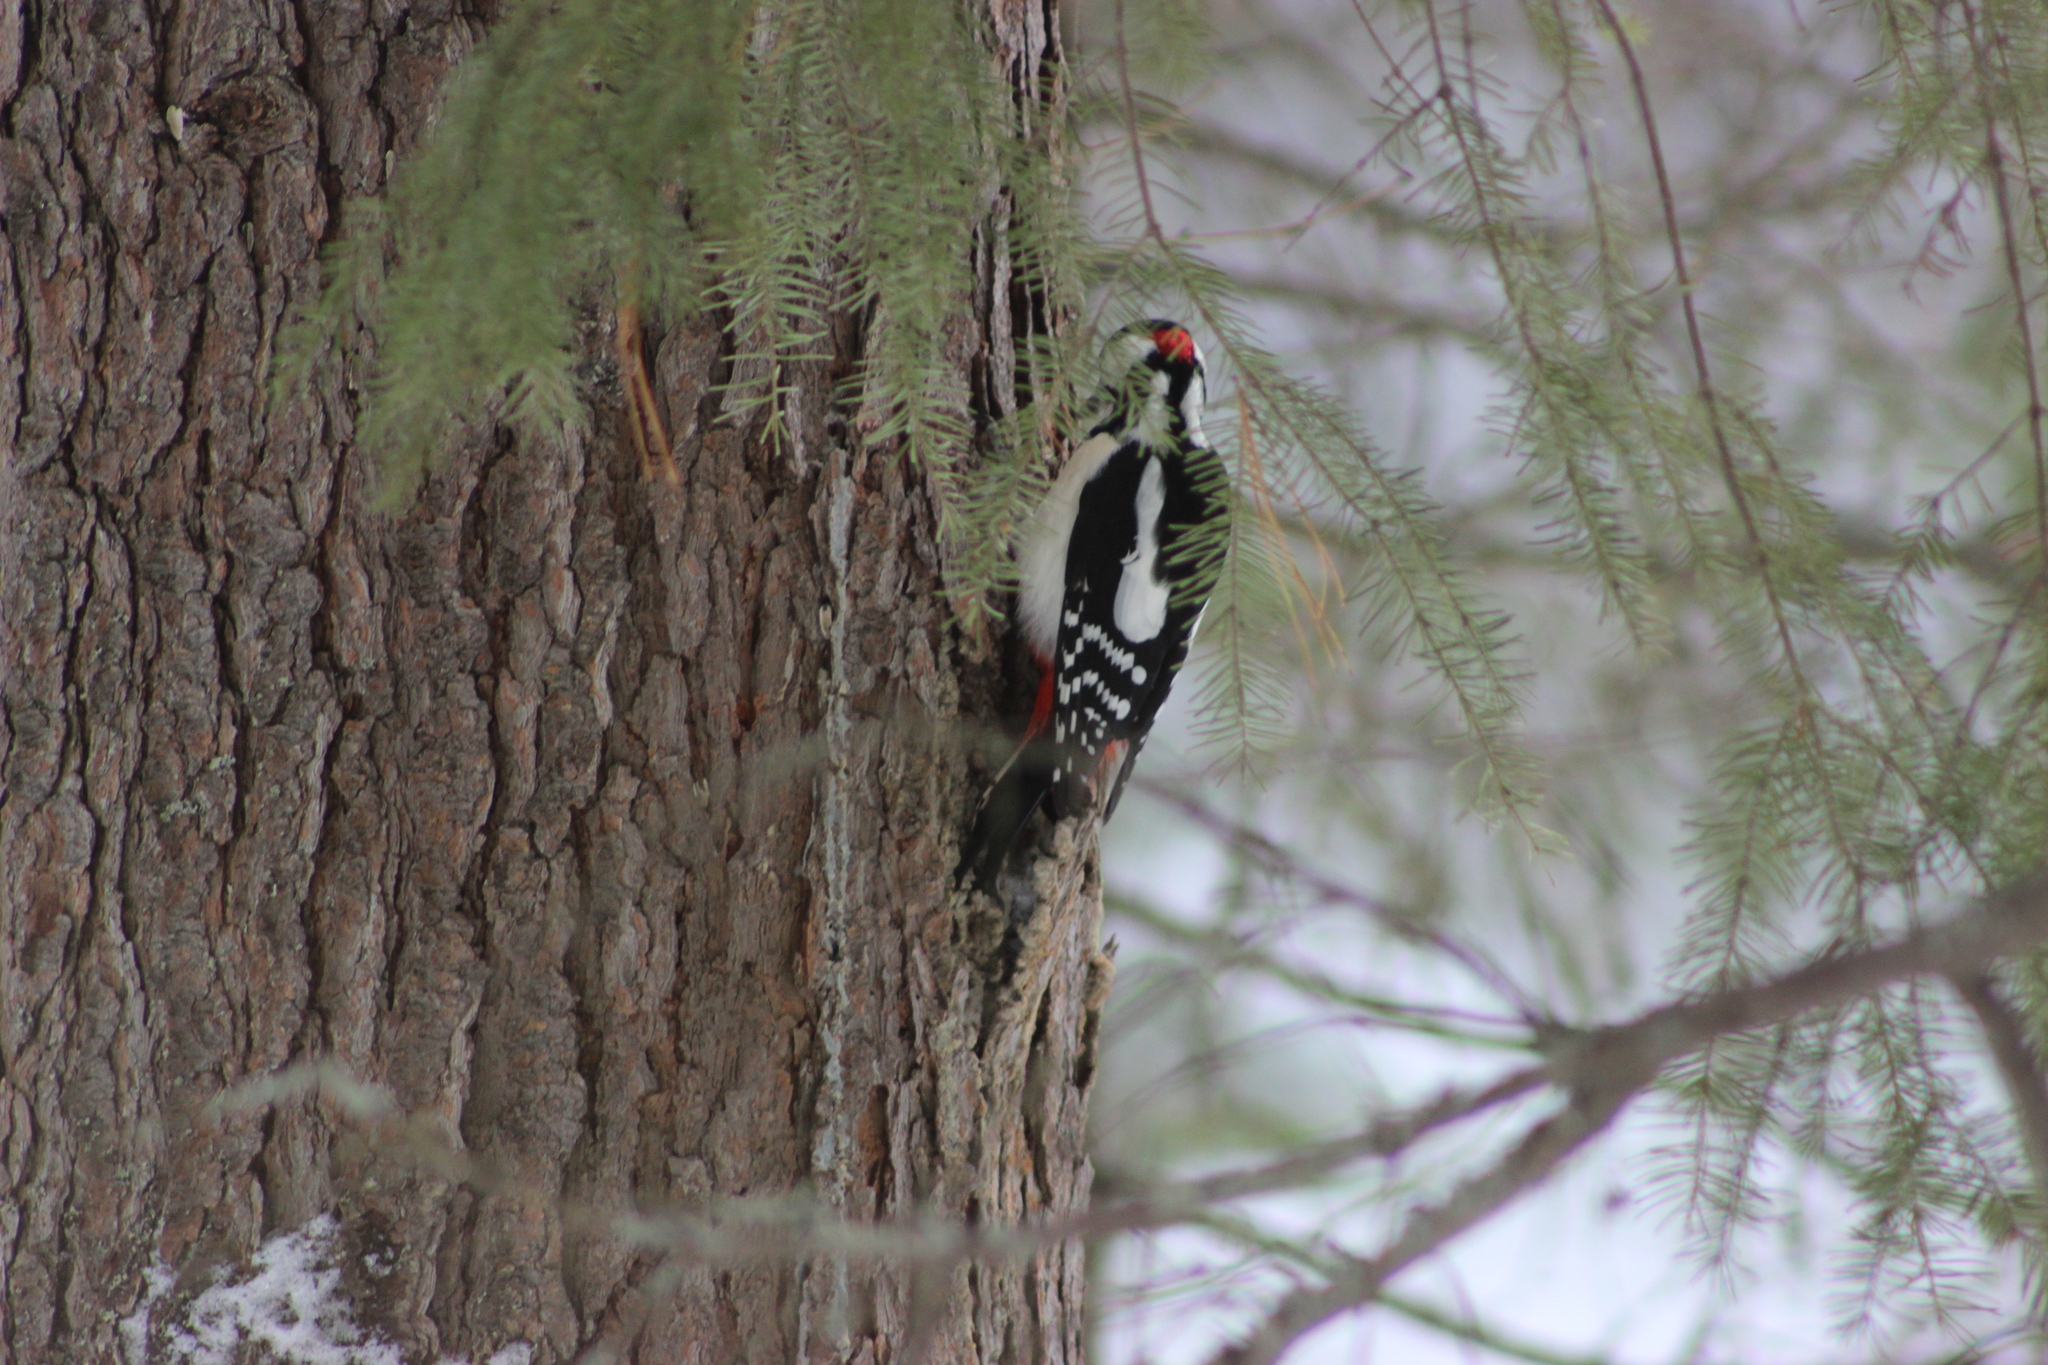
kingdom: Animalia
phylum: Chordata
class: Aves
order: Piciformes
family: Picidae
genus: Dendrocopos
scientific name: Dendrocopos major
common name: Great spotted woodpecker
